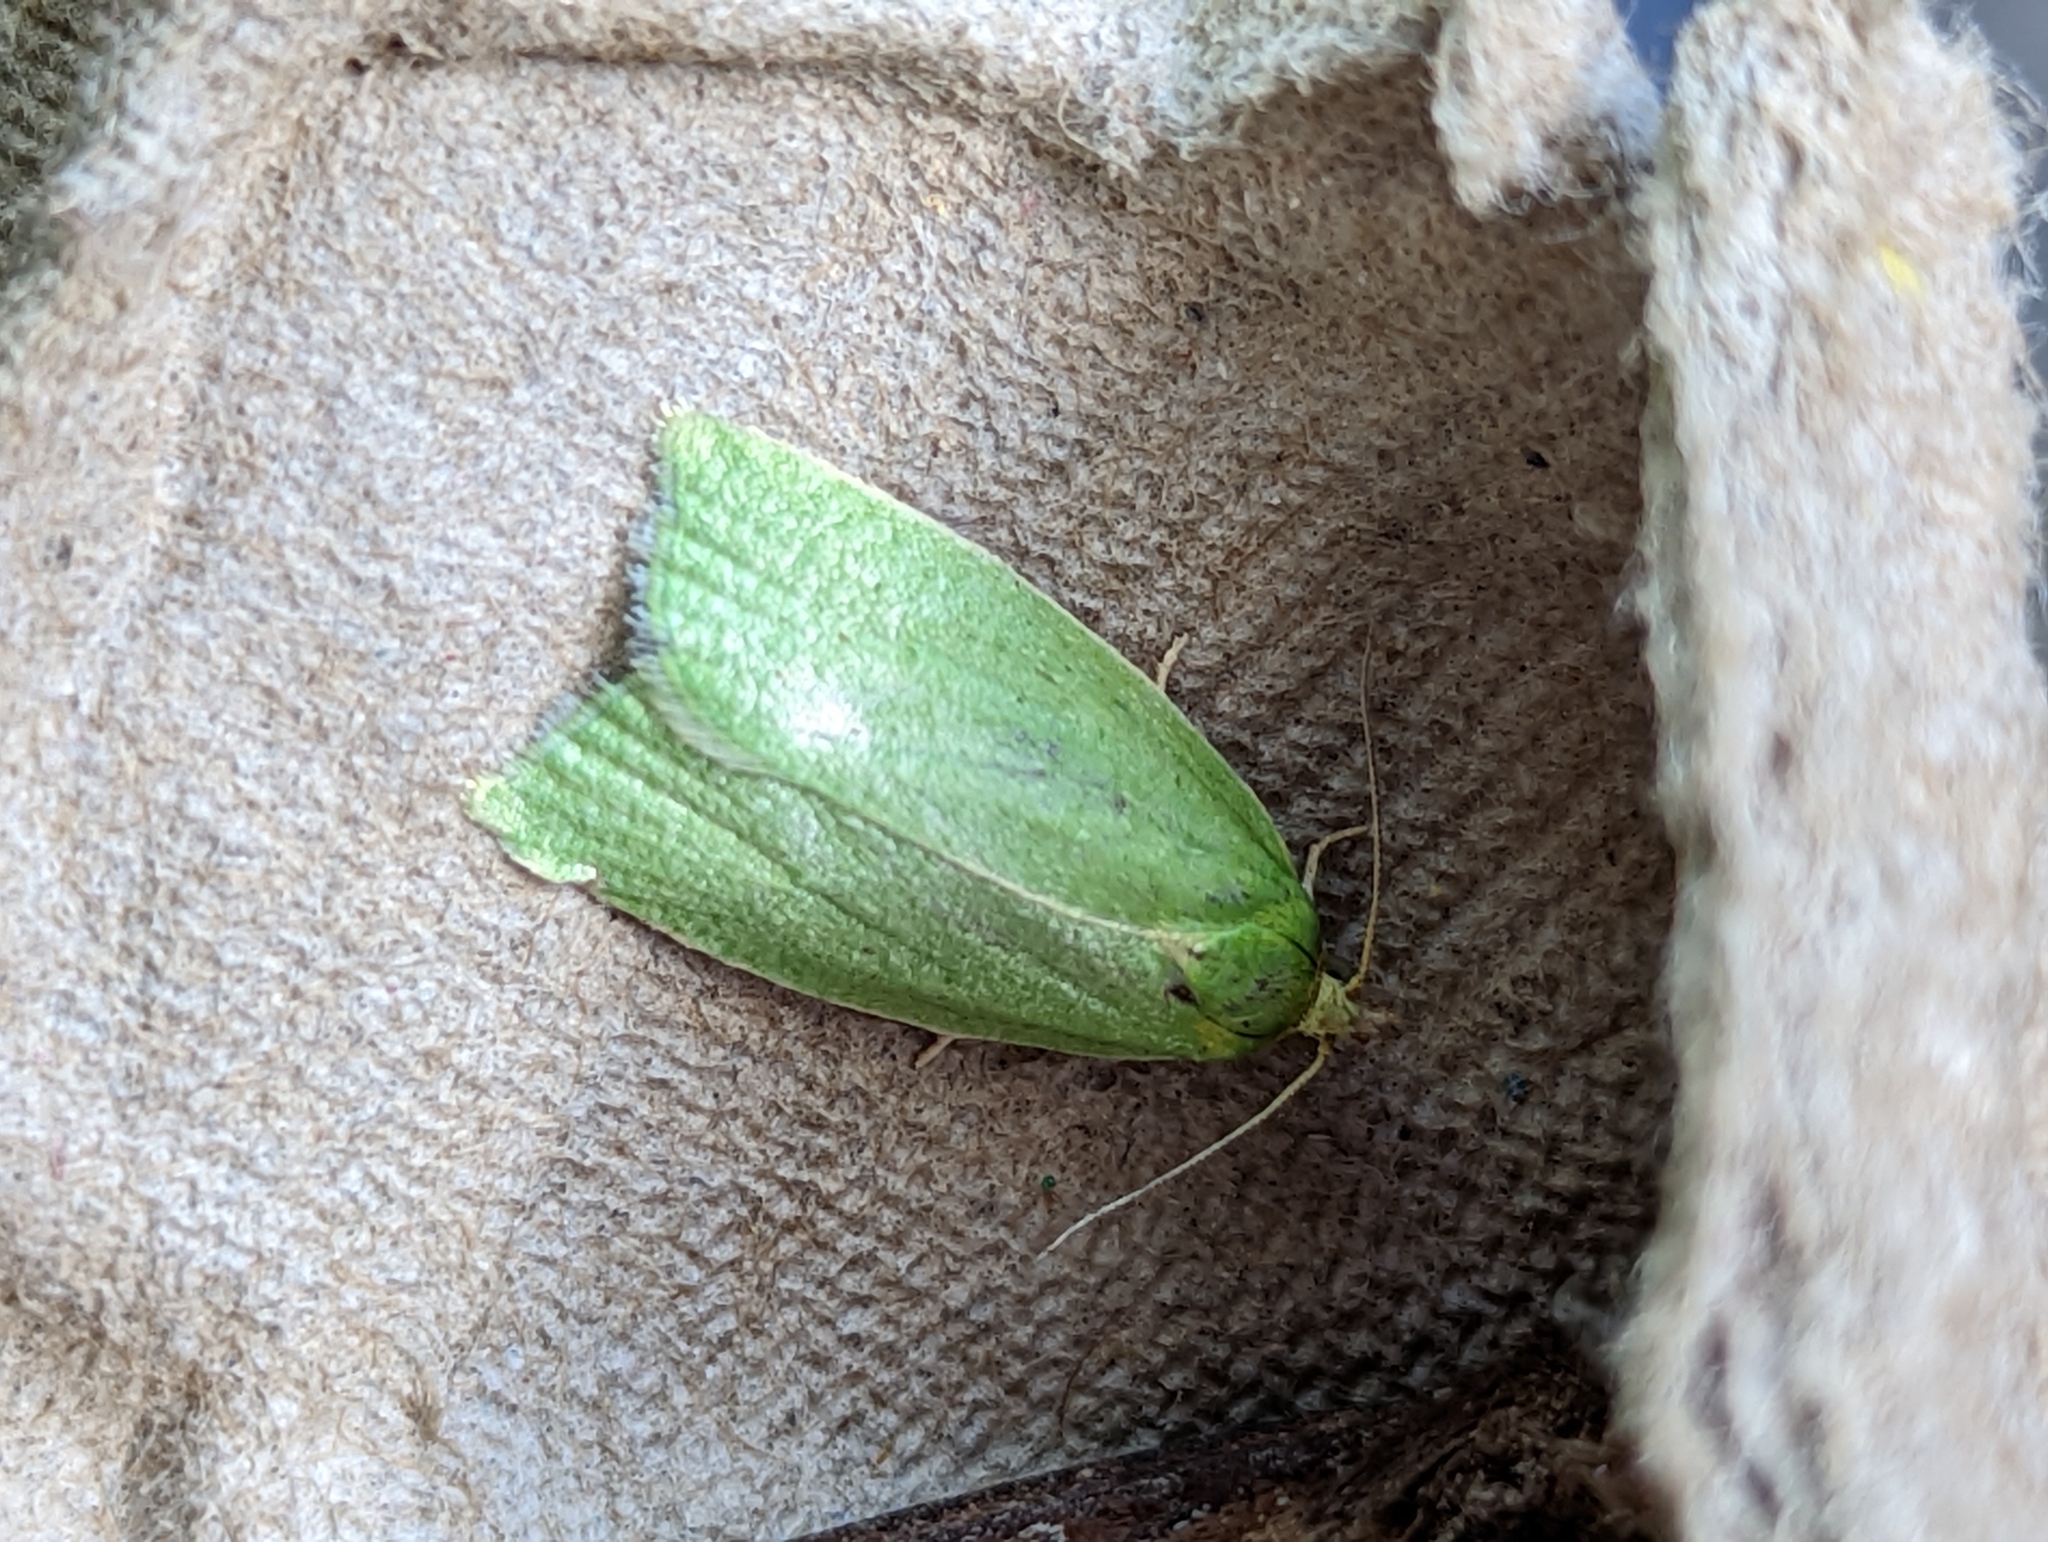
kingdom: Animalia
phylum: Arthropoda
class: Insecta
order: Lepidoptera
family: Tortricidae
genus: Tortrix
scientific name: Tortrix viridana
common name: Green oak tortrix
